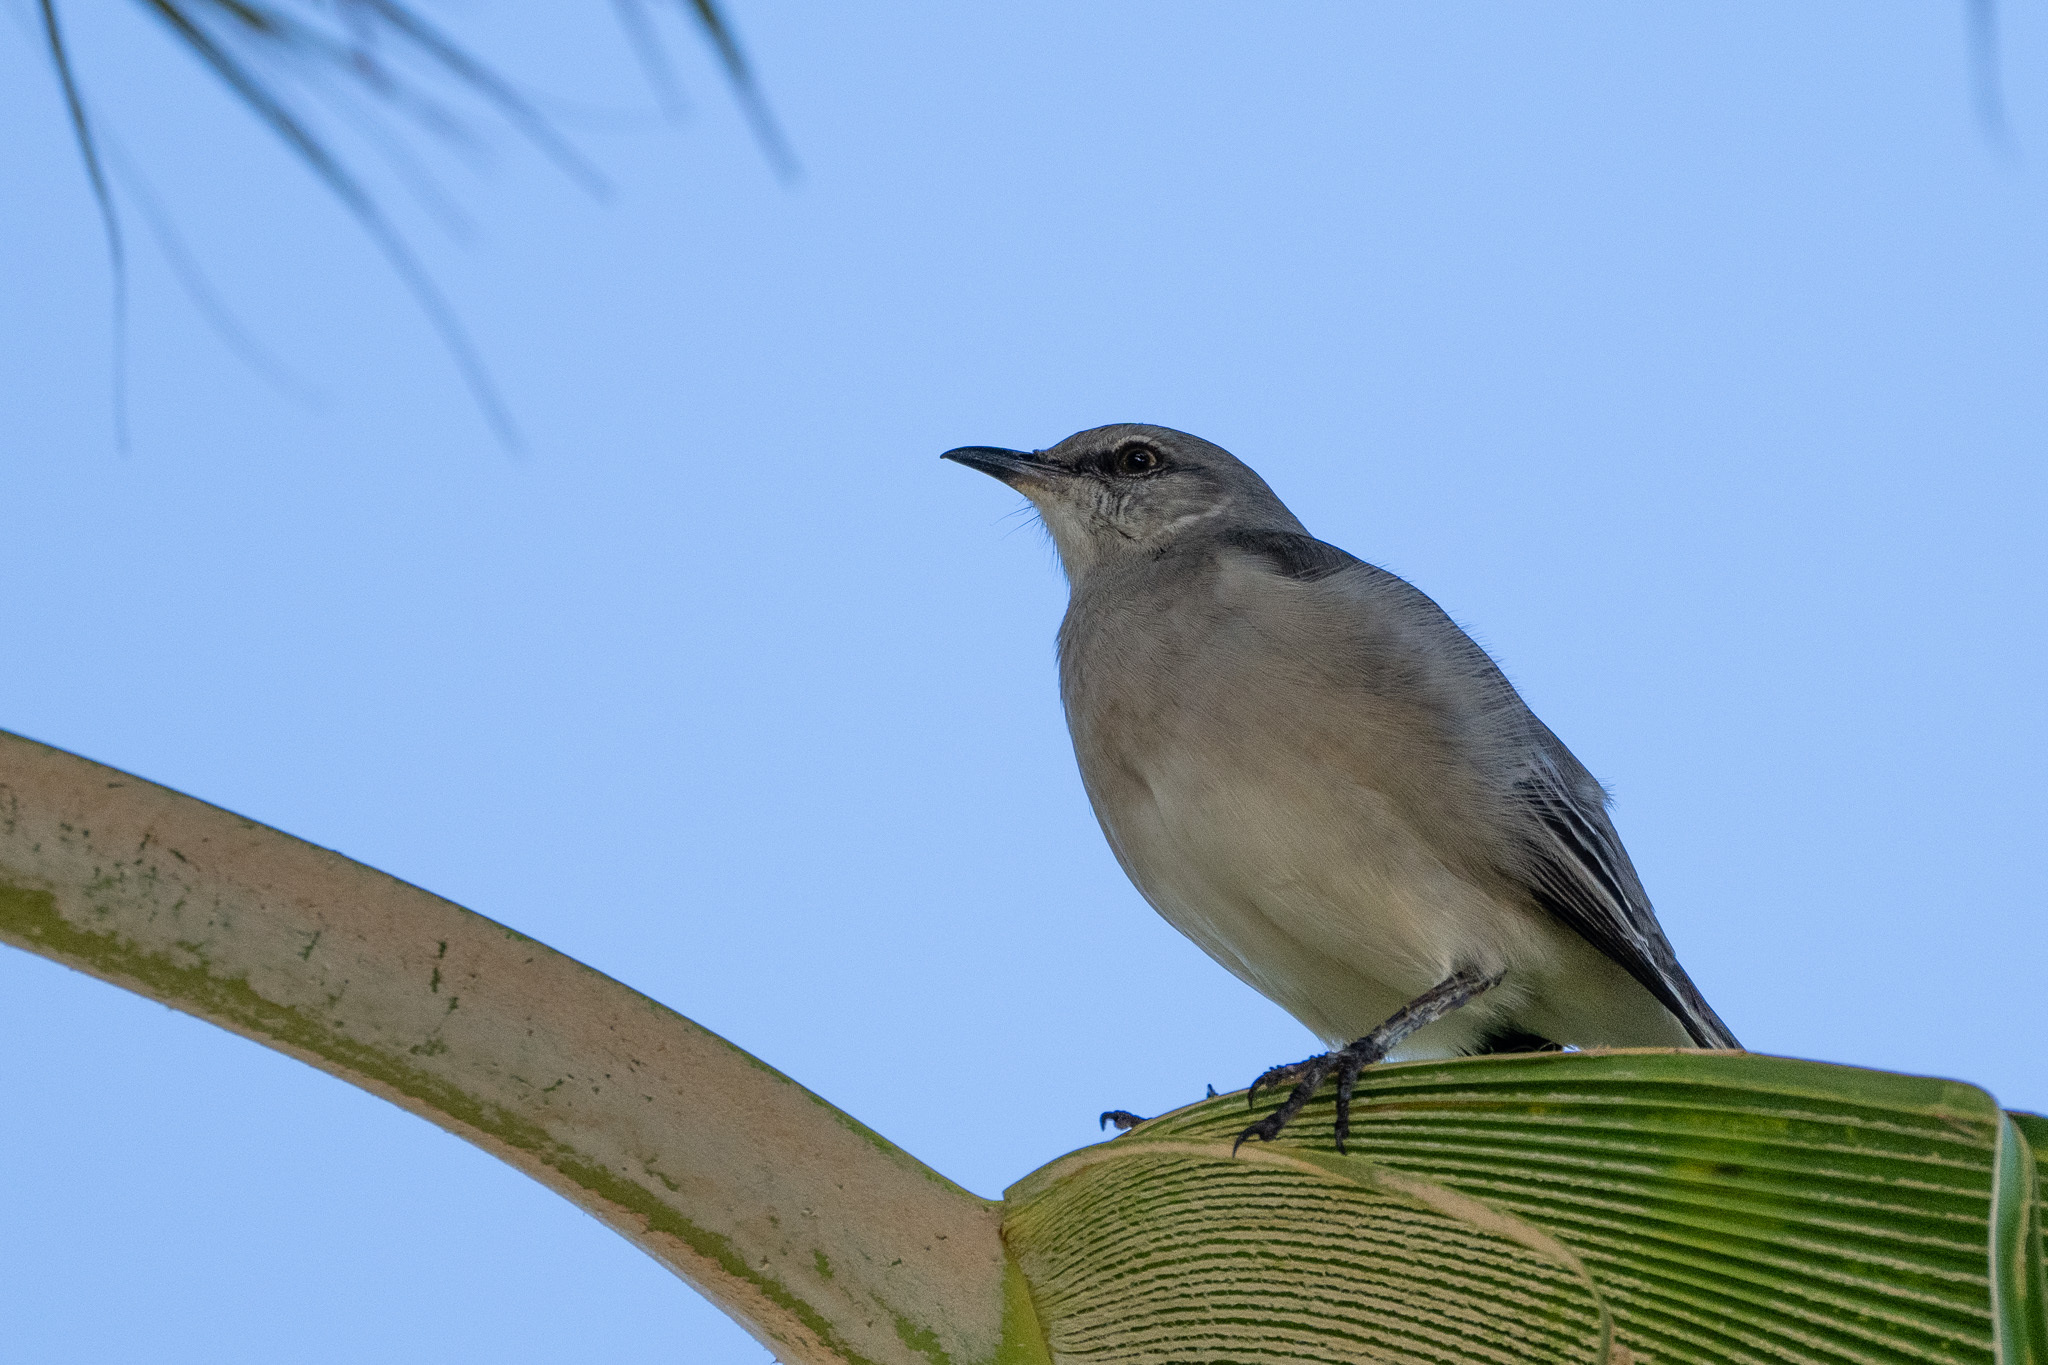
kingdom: Animalia
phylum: Chordata
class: Aves
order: Passeriformes
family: Mimidae
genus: Mimus
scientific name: Mimus polyglottos
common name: Northern mockingbird
